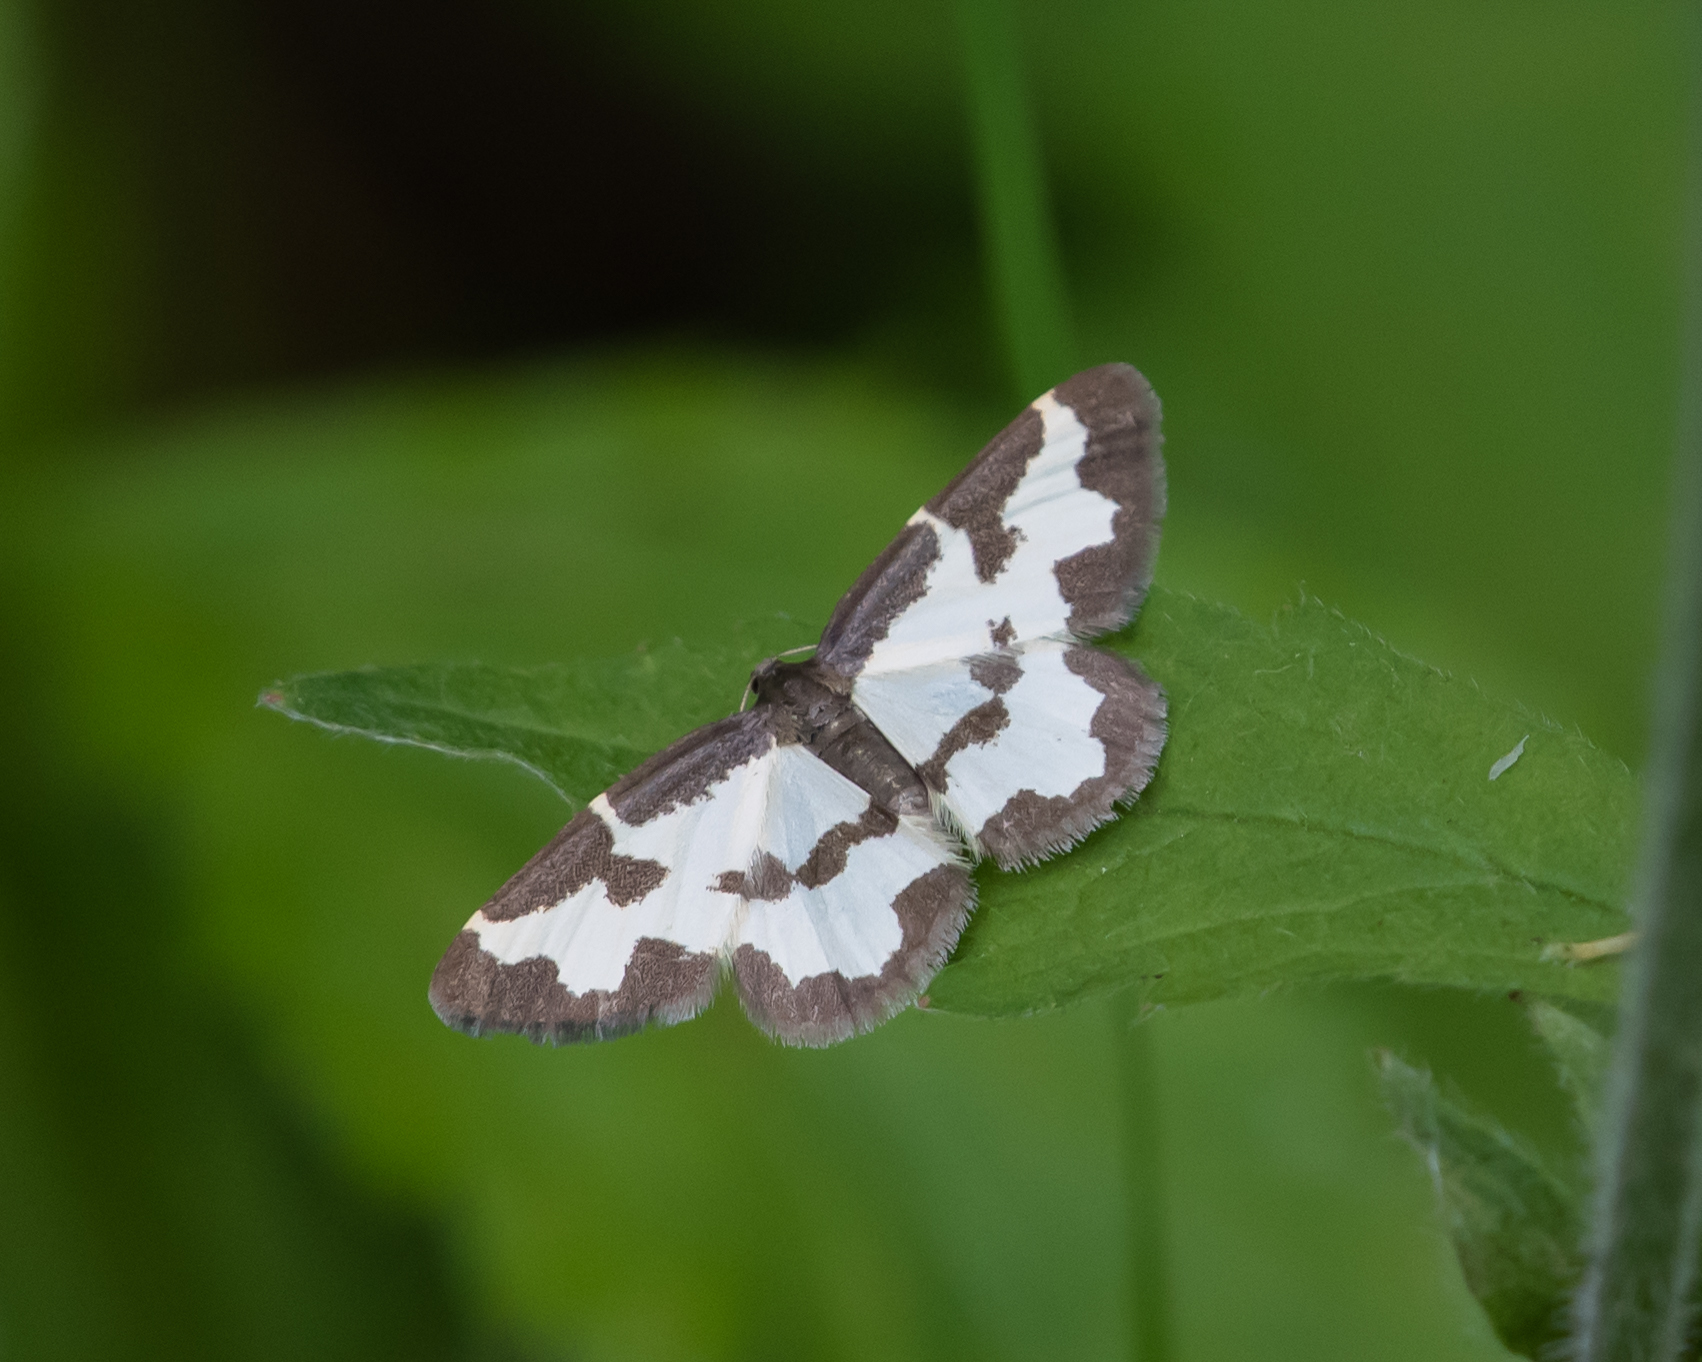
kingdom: Animalia
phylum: Arthropoda
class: Insecta
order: Lepidoptera
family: Geometridae
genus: Lomaspilis
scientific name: Lomaspilis marginata
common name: Clouded border
